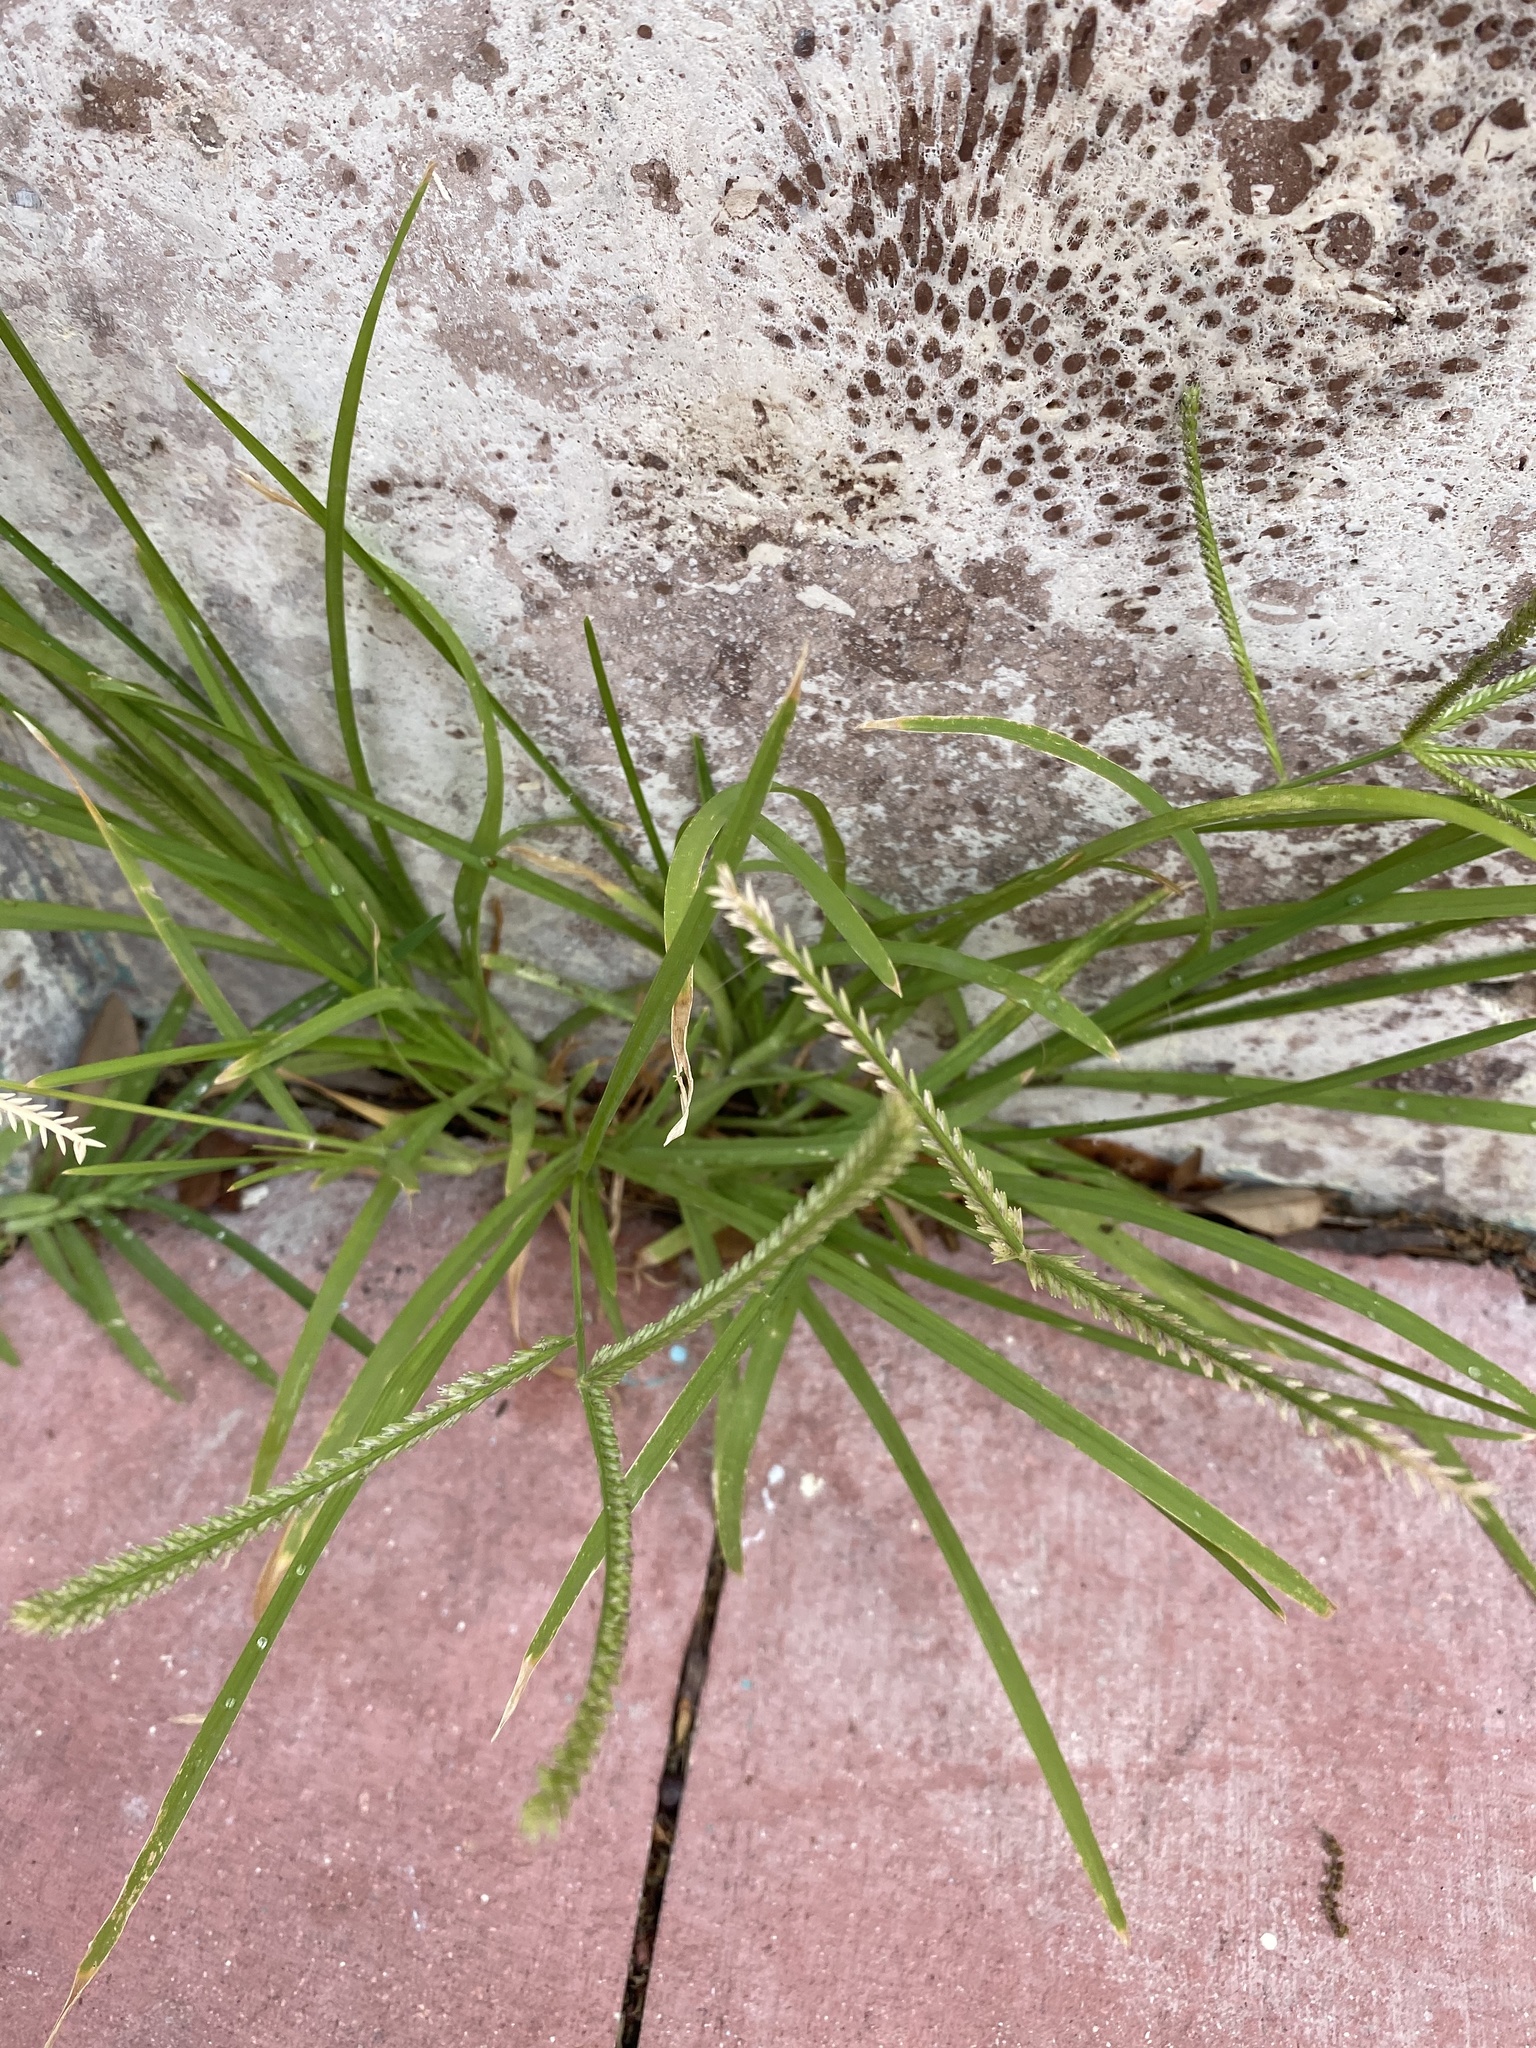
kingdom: Plantae
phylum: Tracheophyta
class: Liliopsida
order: Poales
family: Poaceae
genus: Eleusine
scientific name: Eleusine indica
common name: Yard-grass
